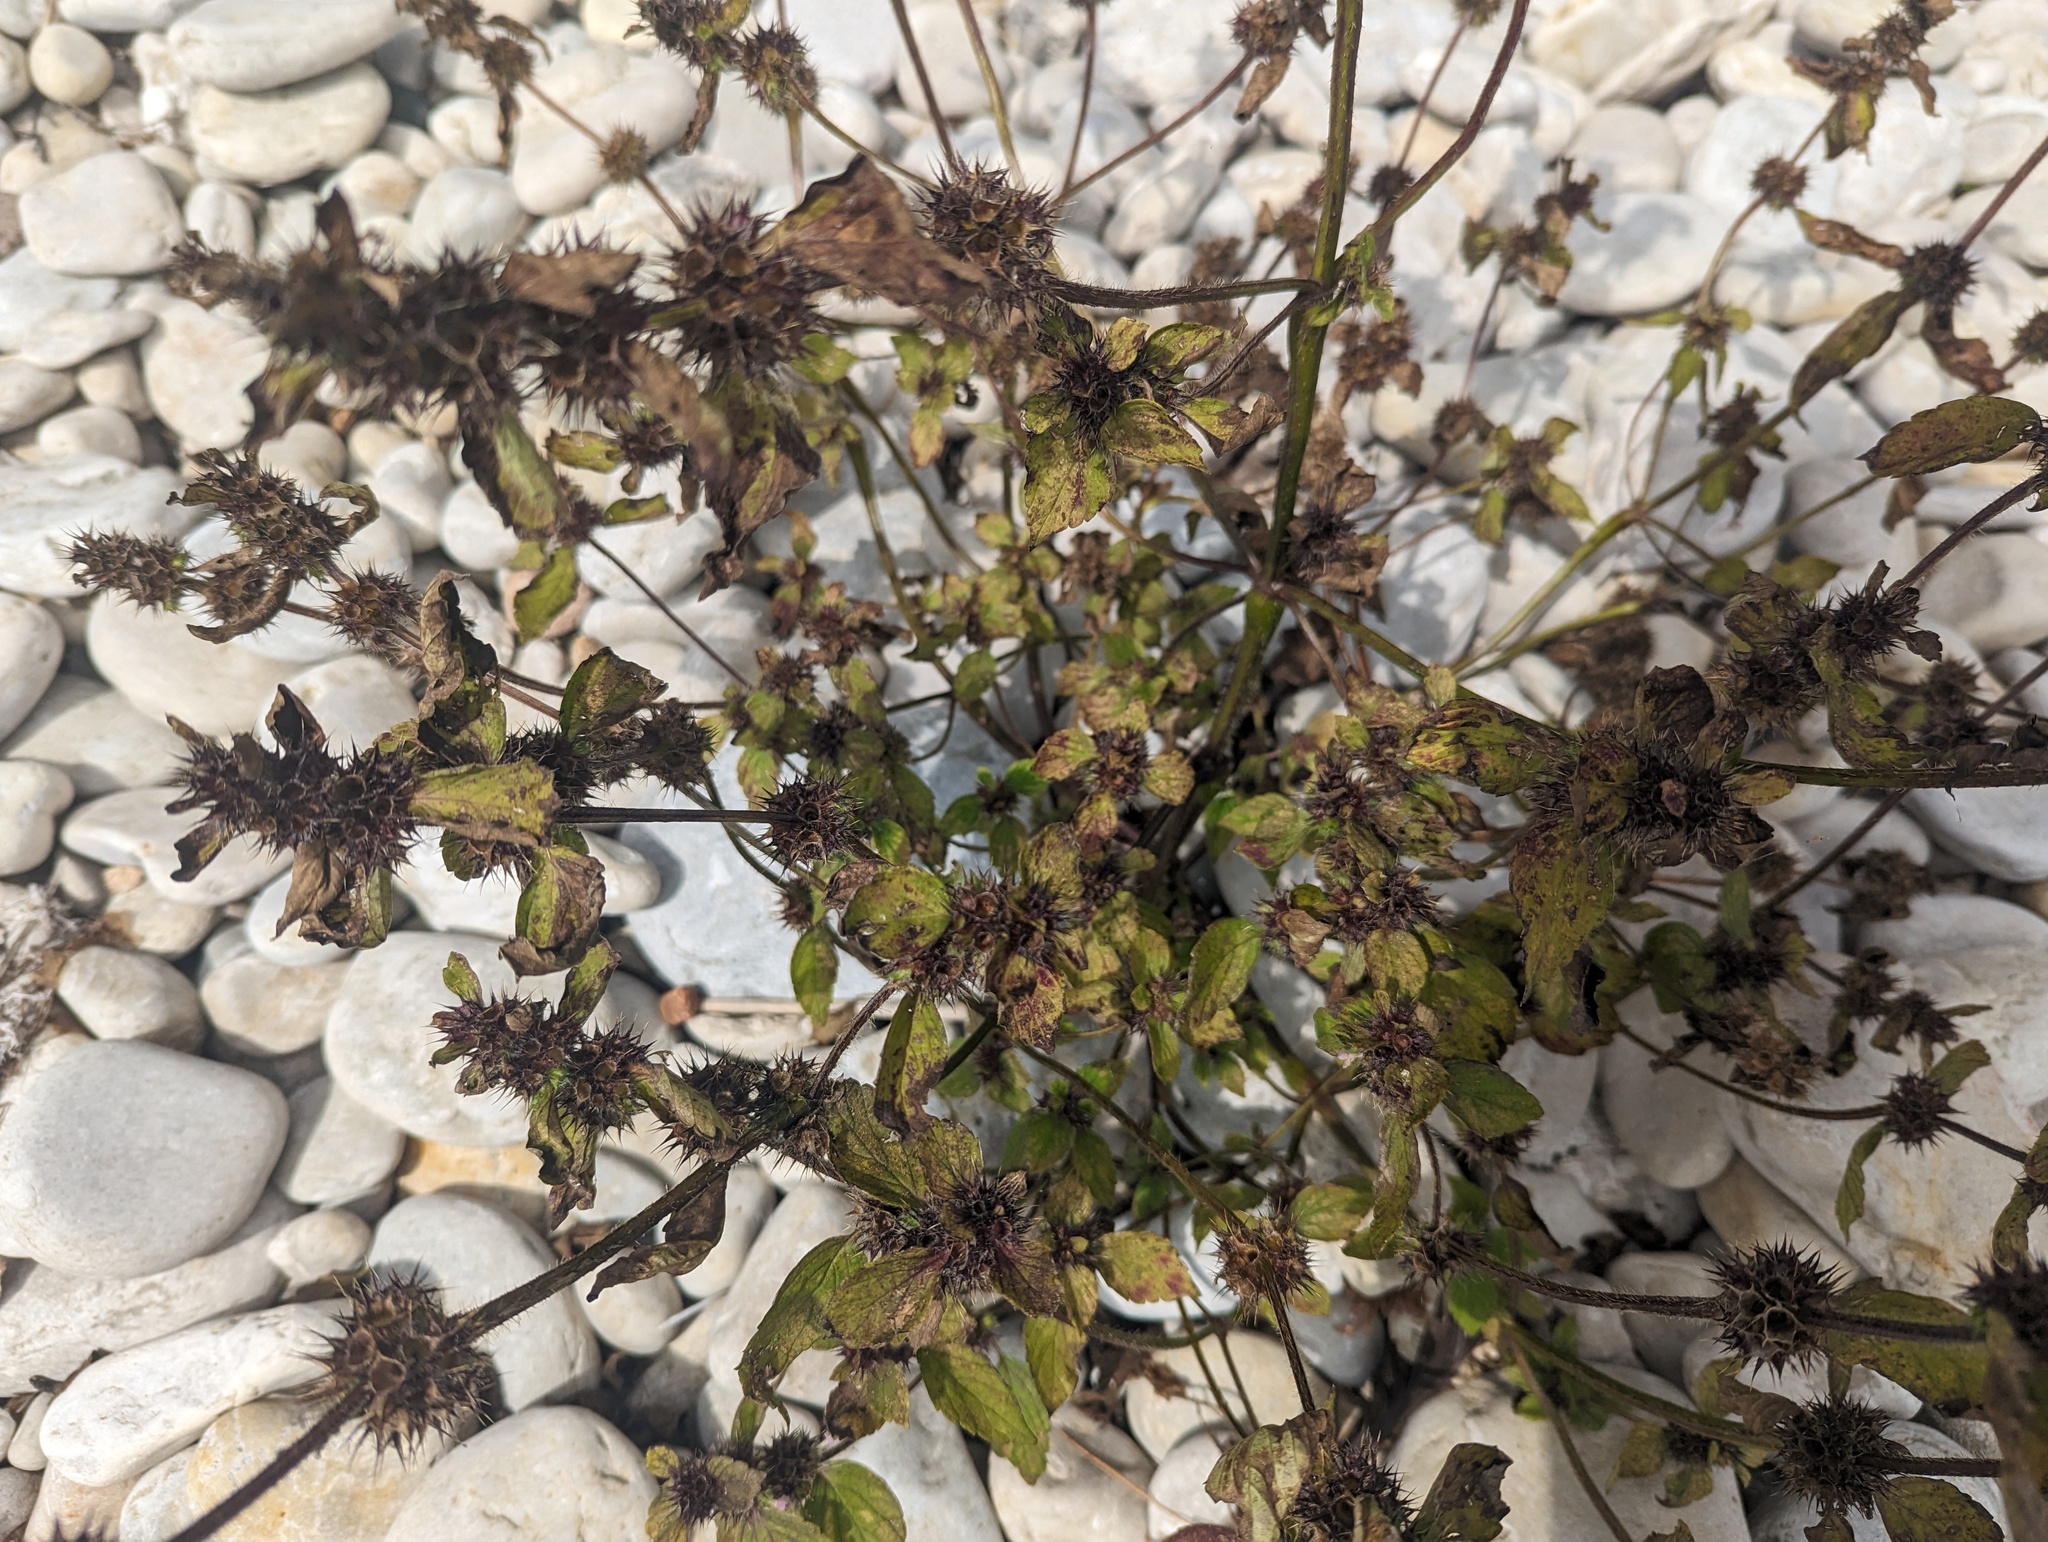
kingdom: Plantae
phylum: Tracheophyta
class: Magnoliopsida
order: Lamiales
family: Lamiaceae
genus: Galeopsis
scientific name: Galeopsis tetrahit
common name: Common hemp-nettle
